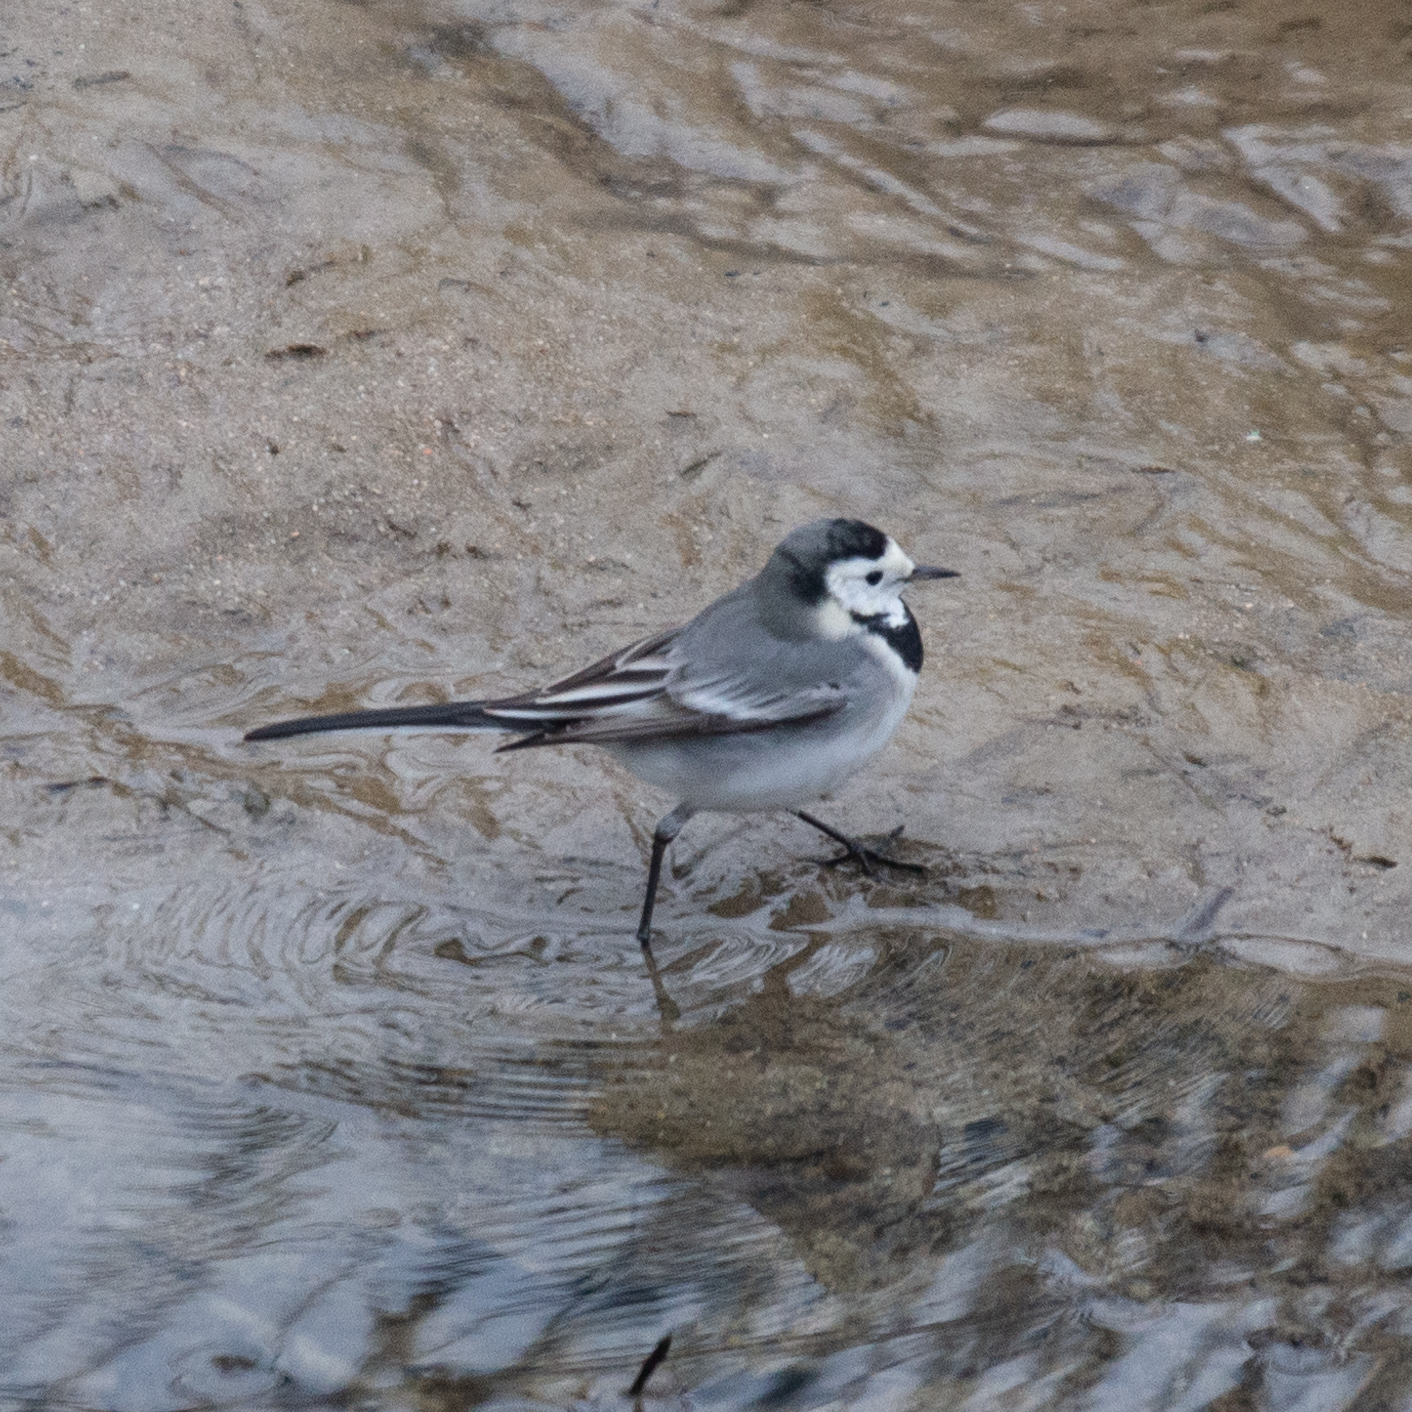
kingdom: Animalia
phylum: Chordata
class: Aves
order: Passeriformes
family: Motacillidae
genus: Motacilla
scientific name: Motacilla alba
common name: White wagtail
